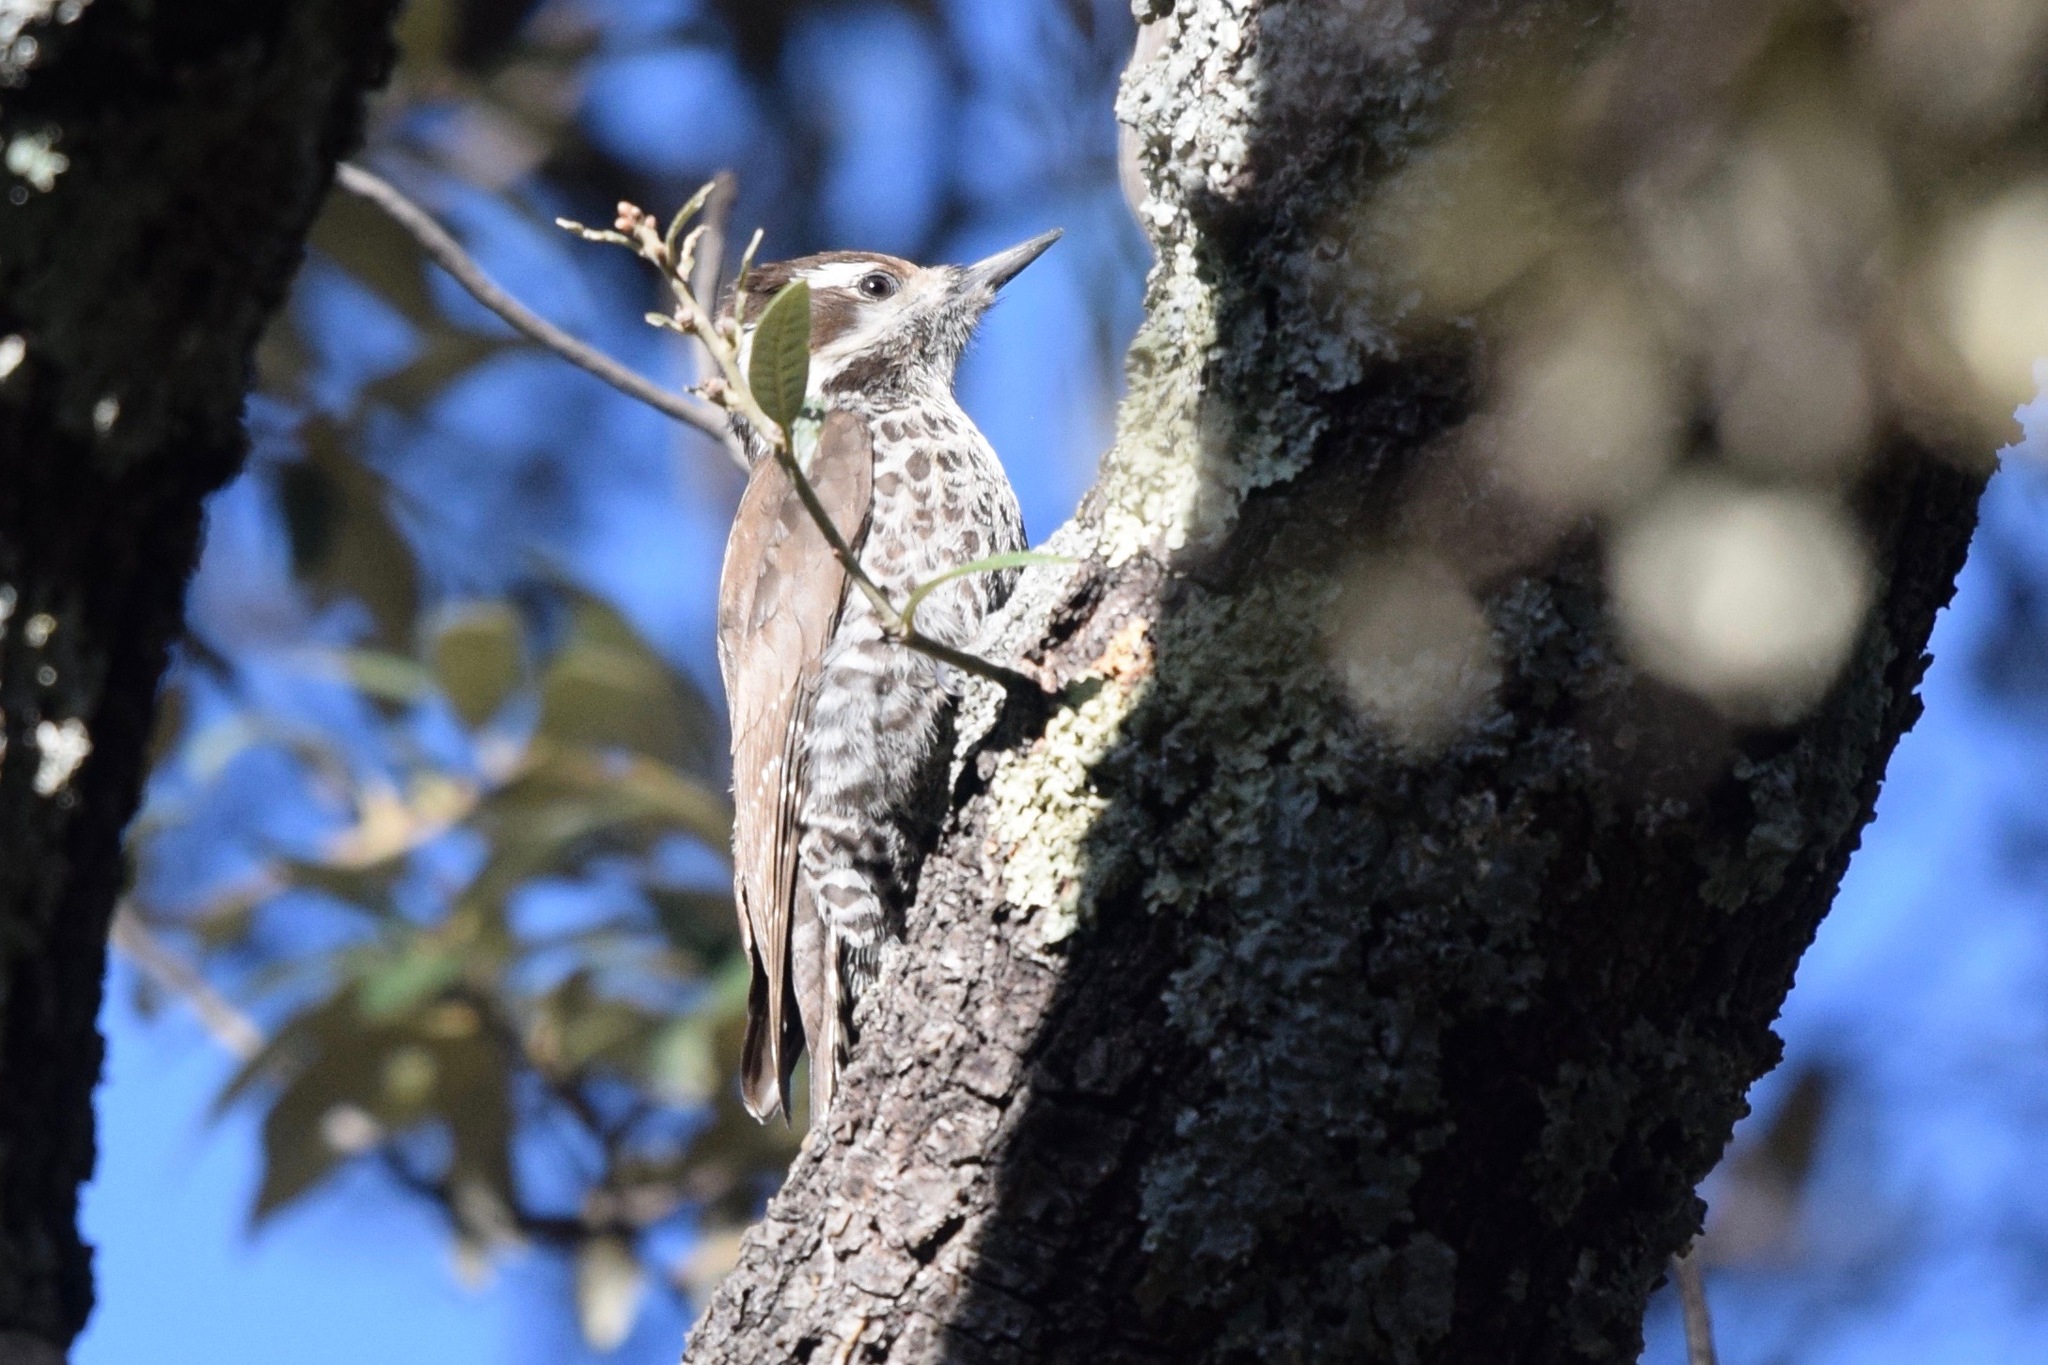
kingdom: Animalia
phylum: Chordata
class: Aves
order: Piciformes
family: Picidae
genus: Leuconotopicus
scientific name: Leuconotopicus arizonae
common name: Arizona woodpecker
